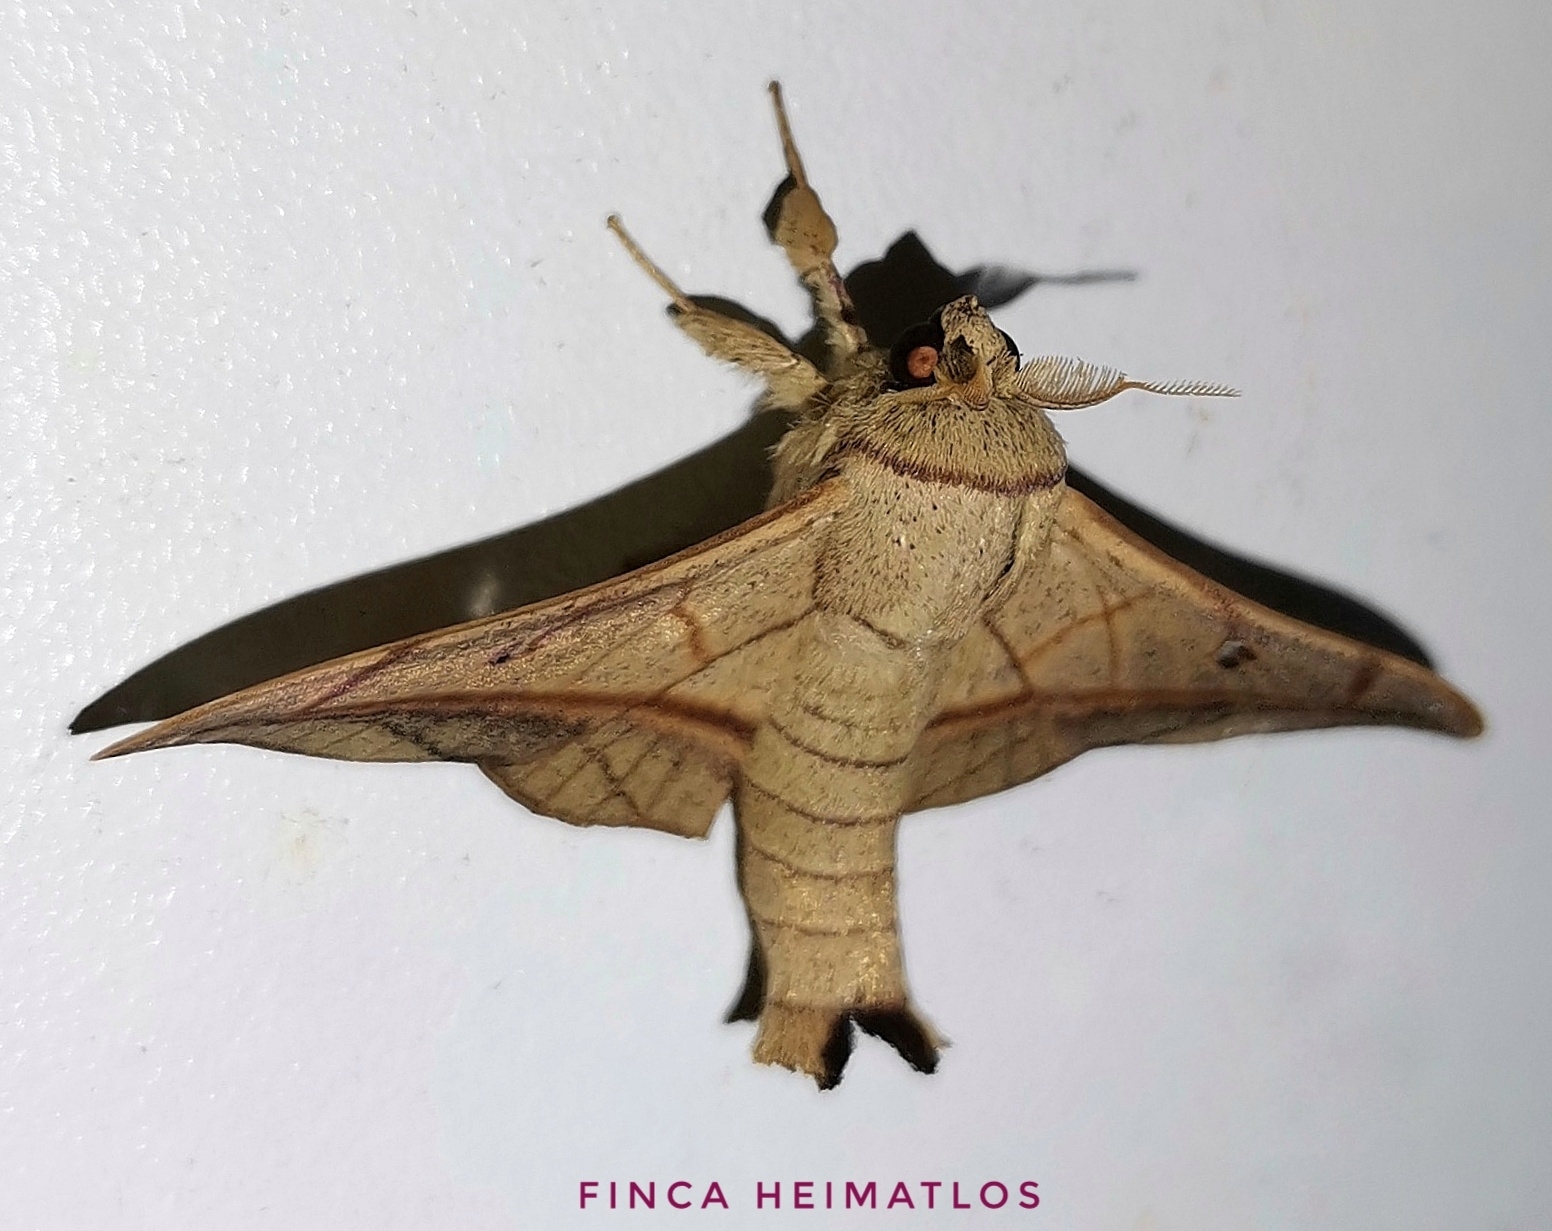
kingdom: Animalia
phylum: Arthropoda
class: Insecta
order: Lepidoptera
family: Mimallonidae
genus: Cicinnus
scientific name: Cicinnus forbesi
